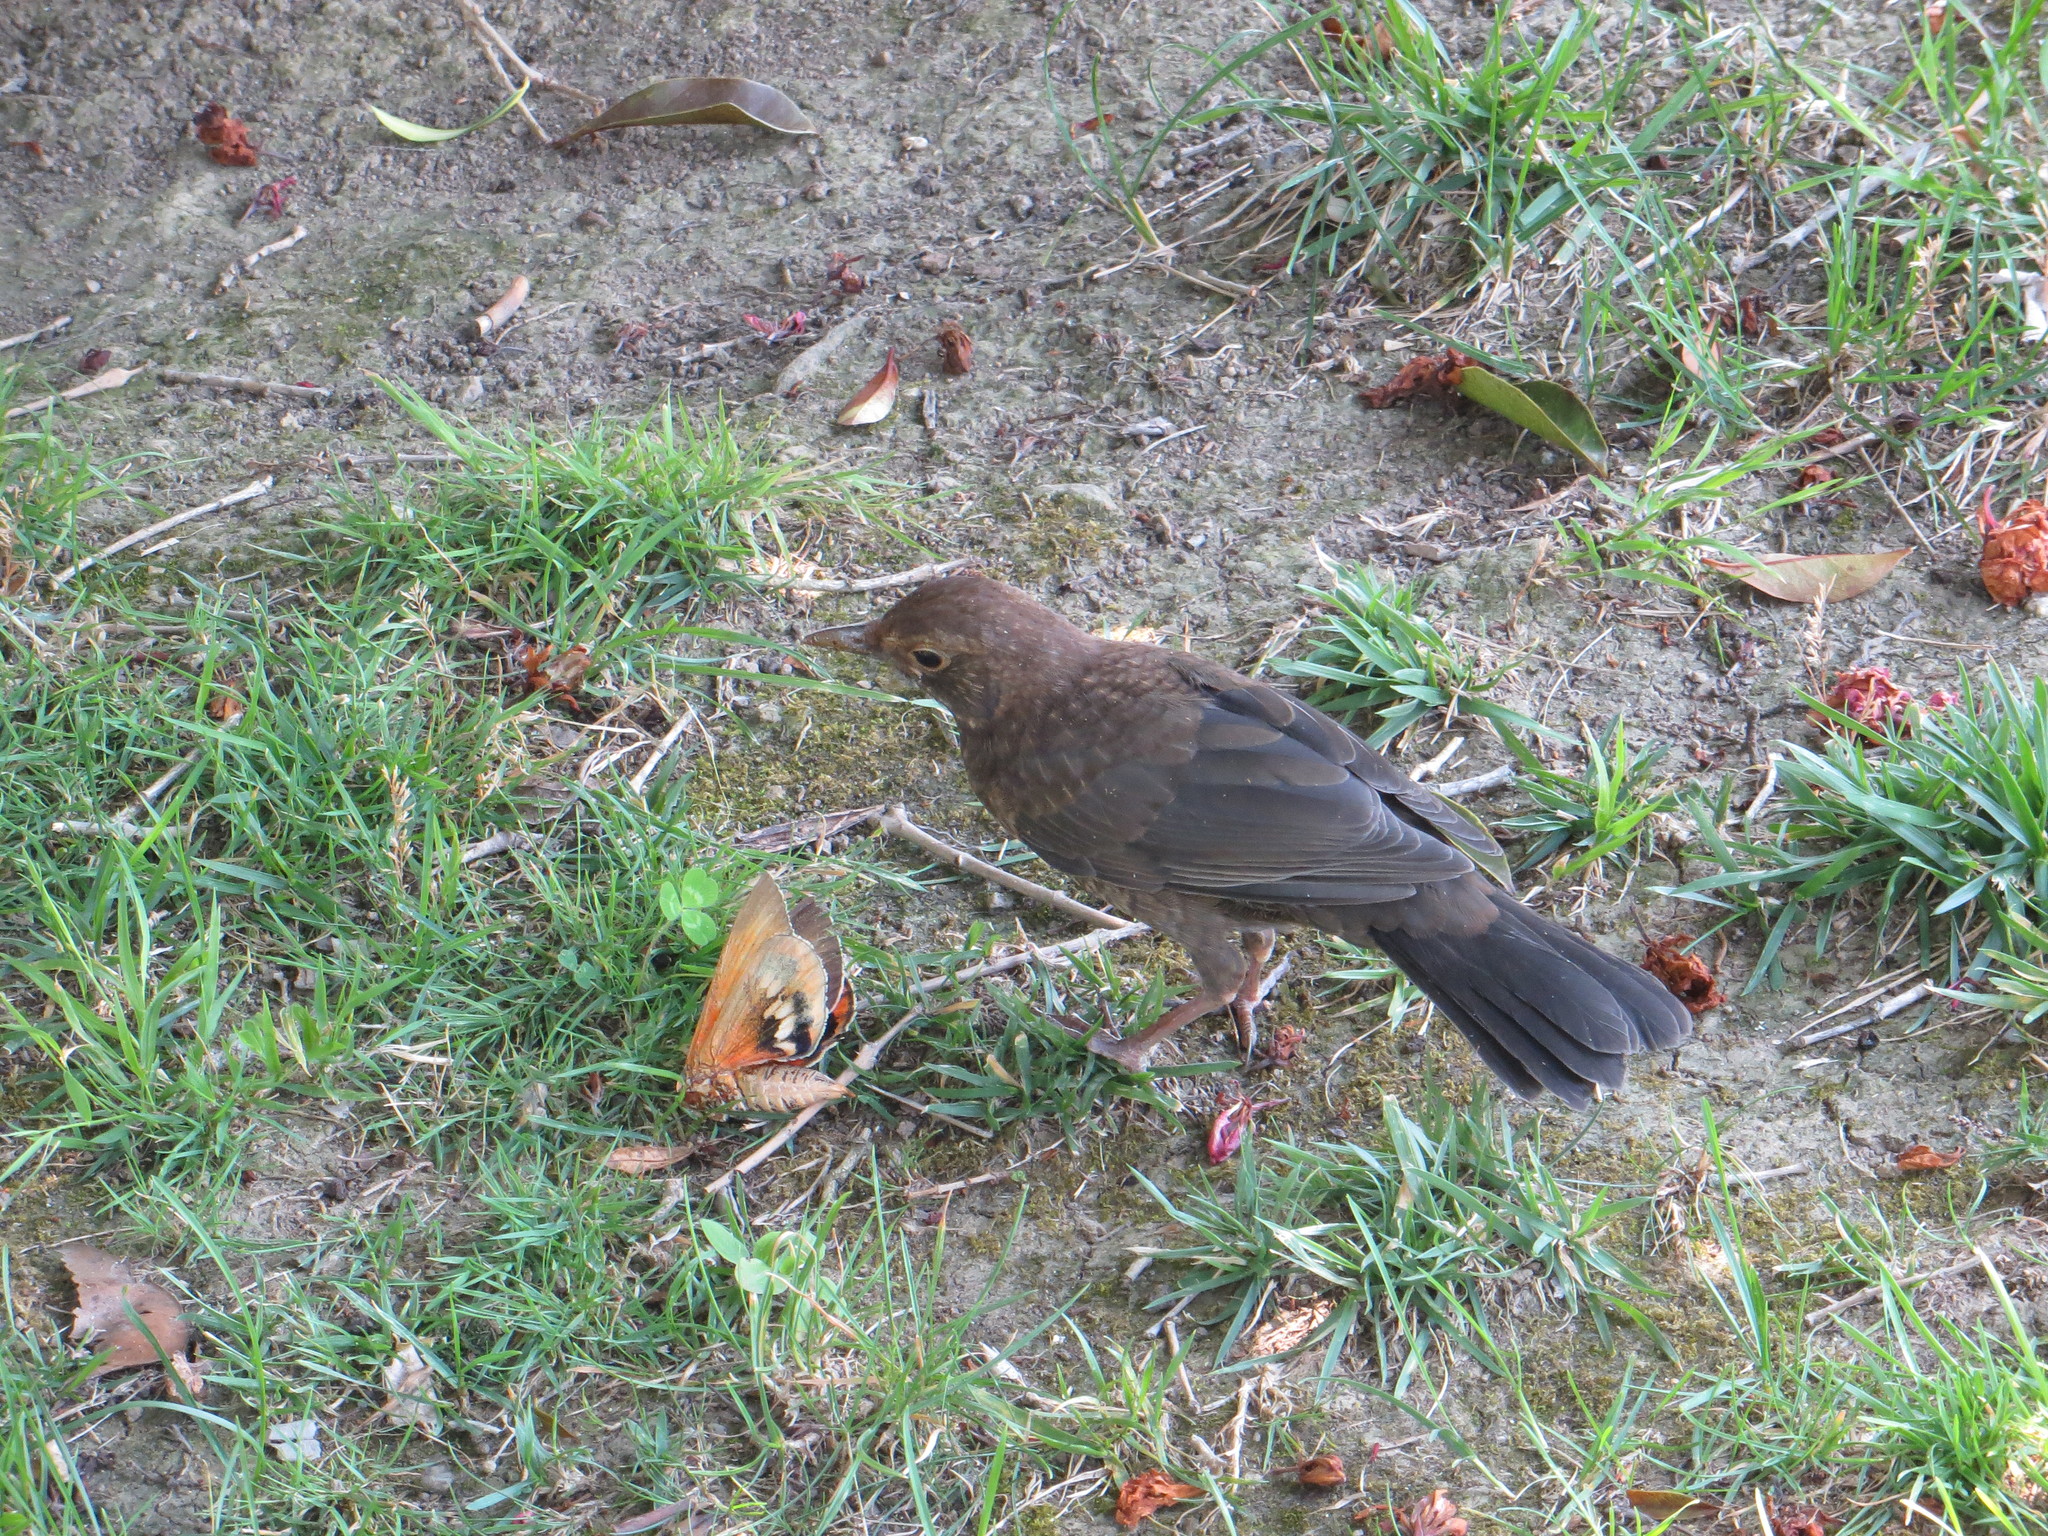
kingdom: Animalia
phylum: Chordata
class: Aves
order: Passeriformes
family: Turdidae
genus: Turdus
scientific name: Turdus merula
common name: Common blackbird
